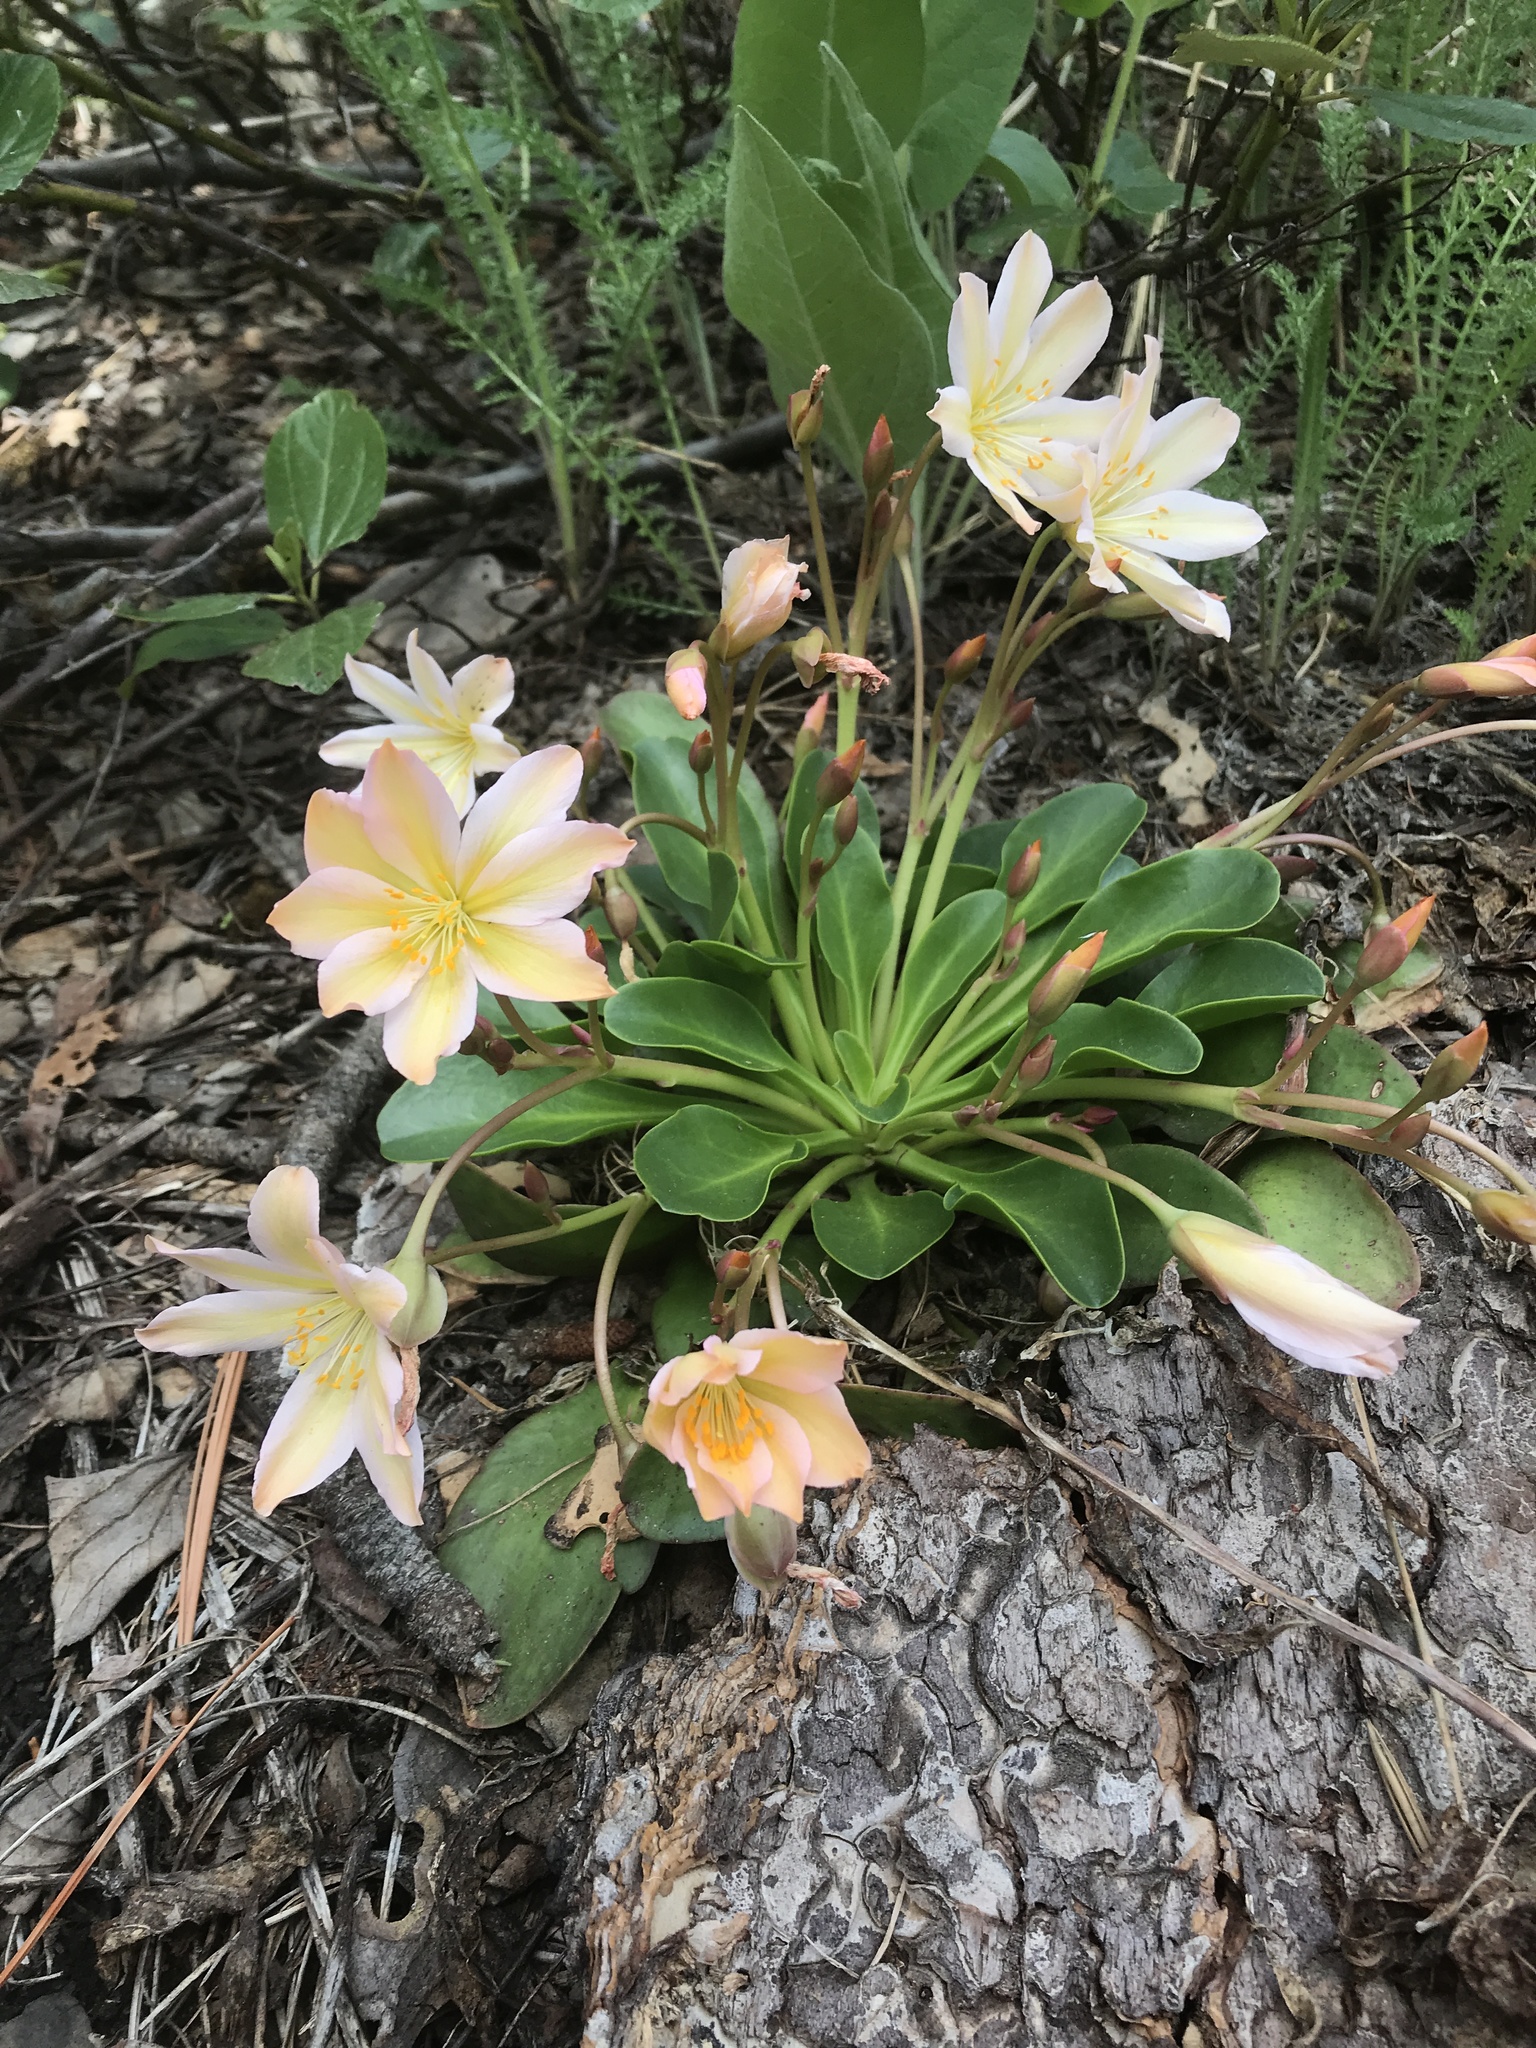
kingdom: Plantae
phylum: Tracheophyta
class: Magnoliopsida
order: Caryophyllales
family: Montiaceae
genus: Lewisiopsis
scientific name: Lewisiopsis tweedyi
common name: Tweedy's pussypaws
